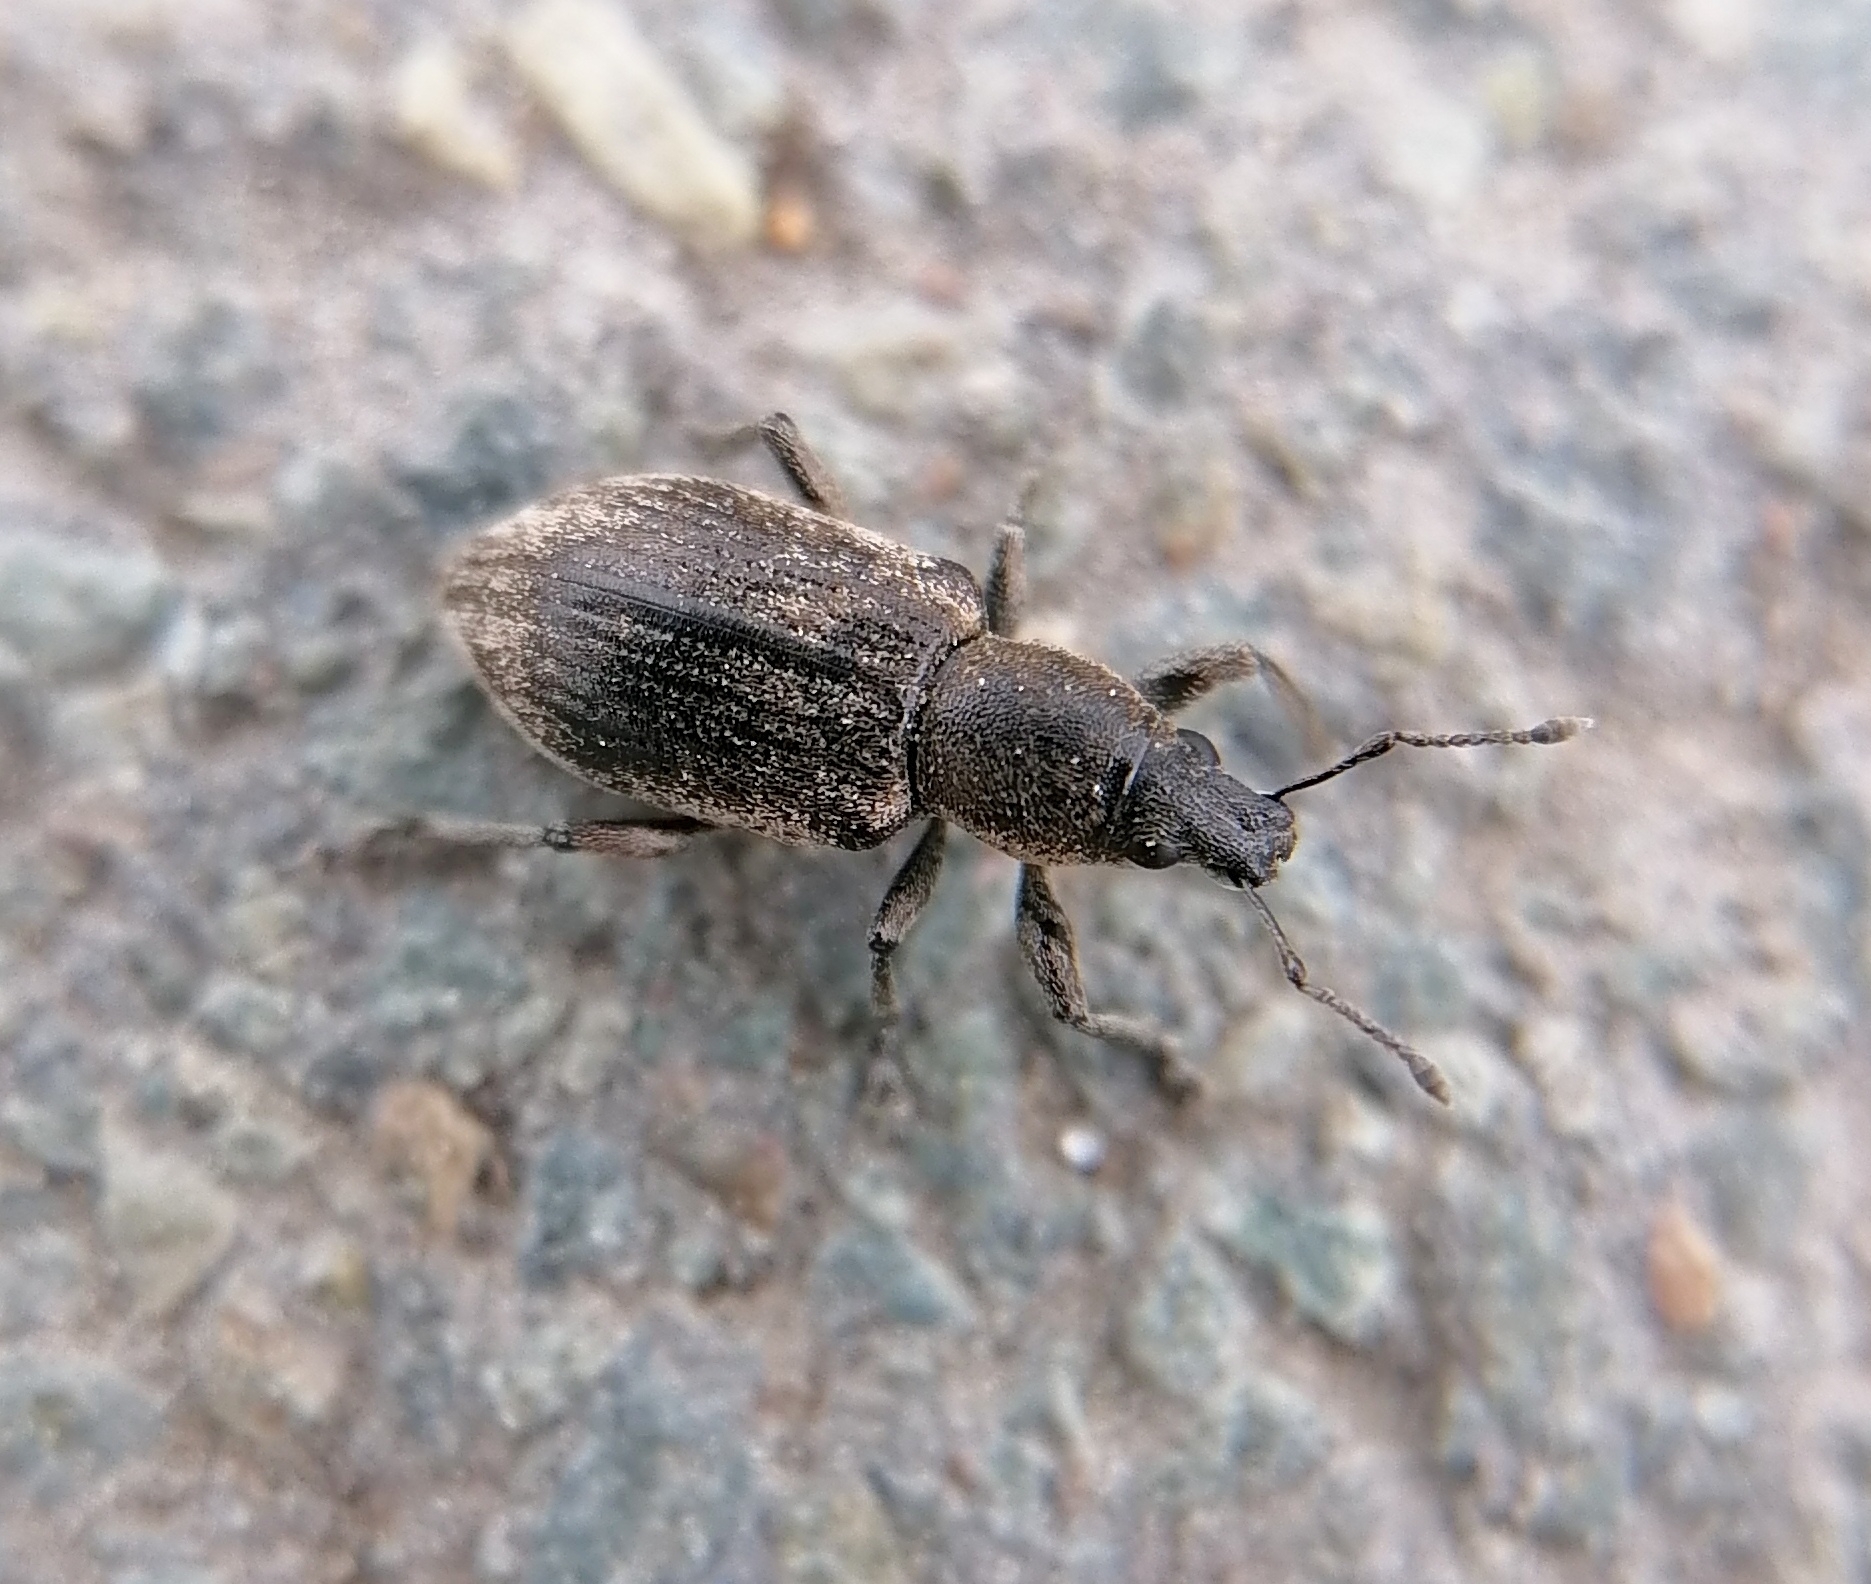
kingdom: Animalia
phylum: Arthropoda
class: Insecta
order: Coleoptera
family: Curculionidae
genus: Tanymecus
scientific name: Tanymecus palliatus
